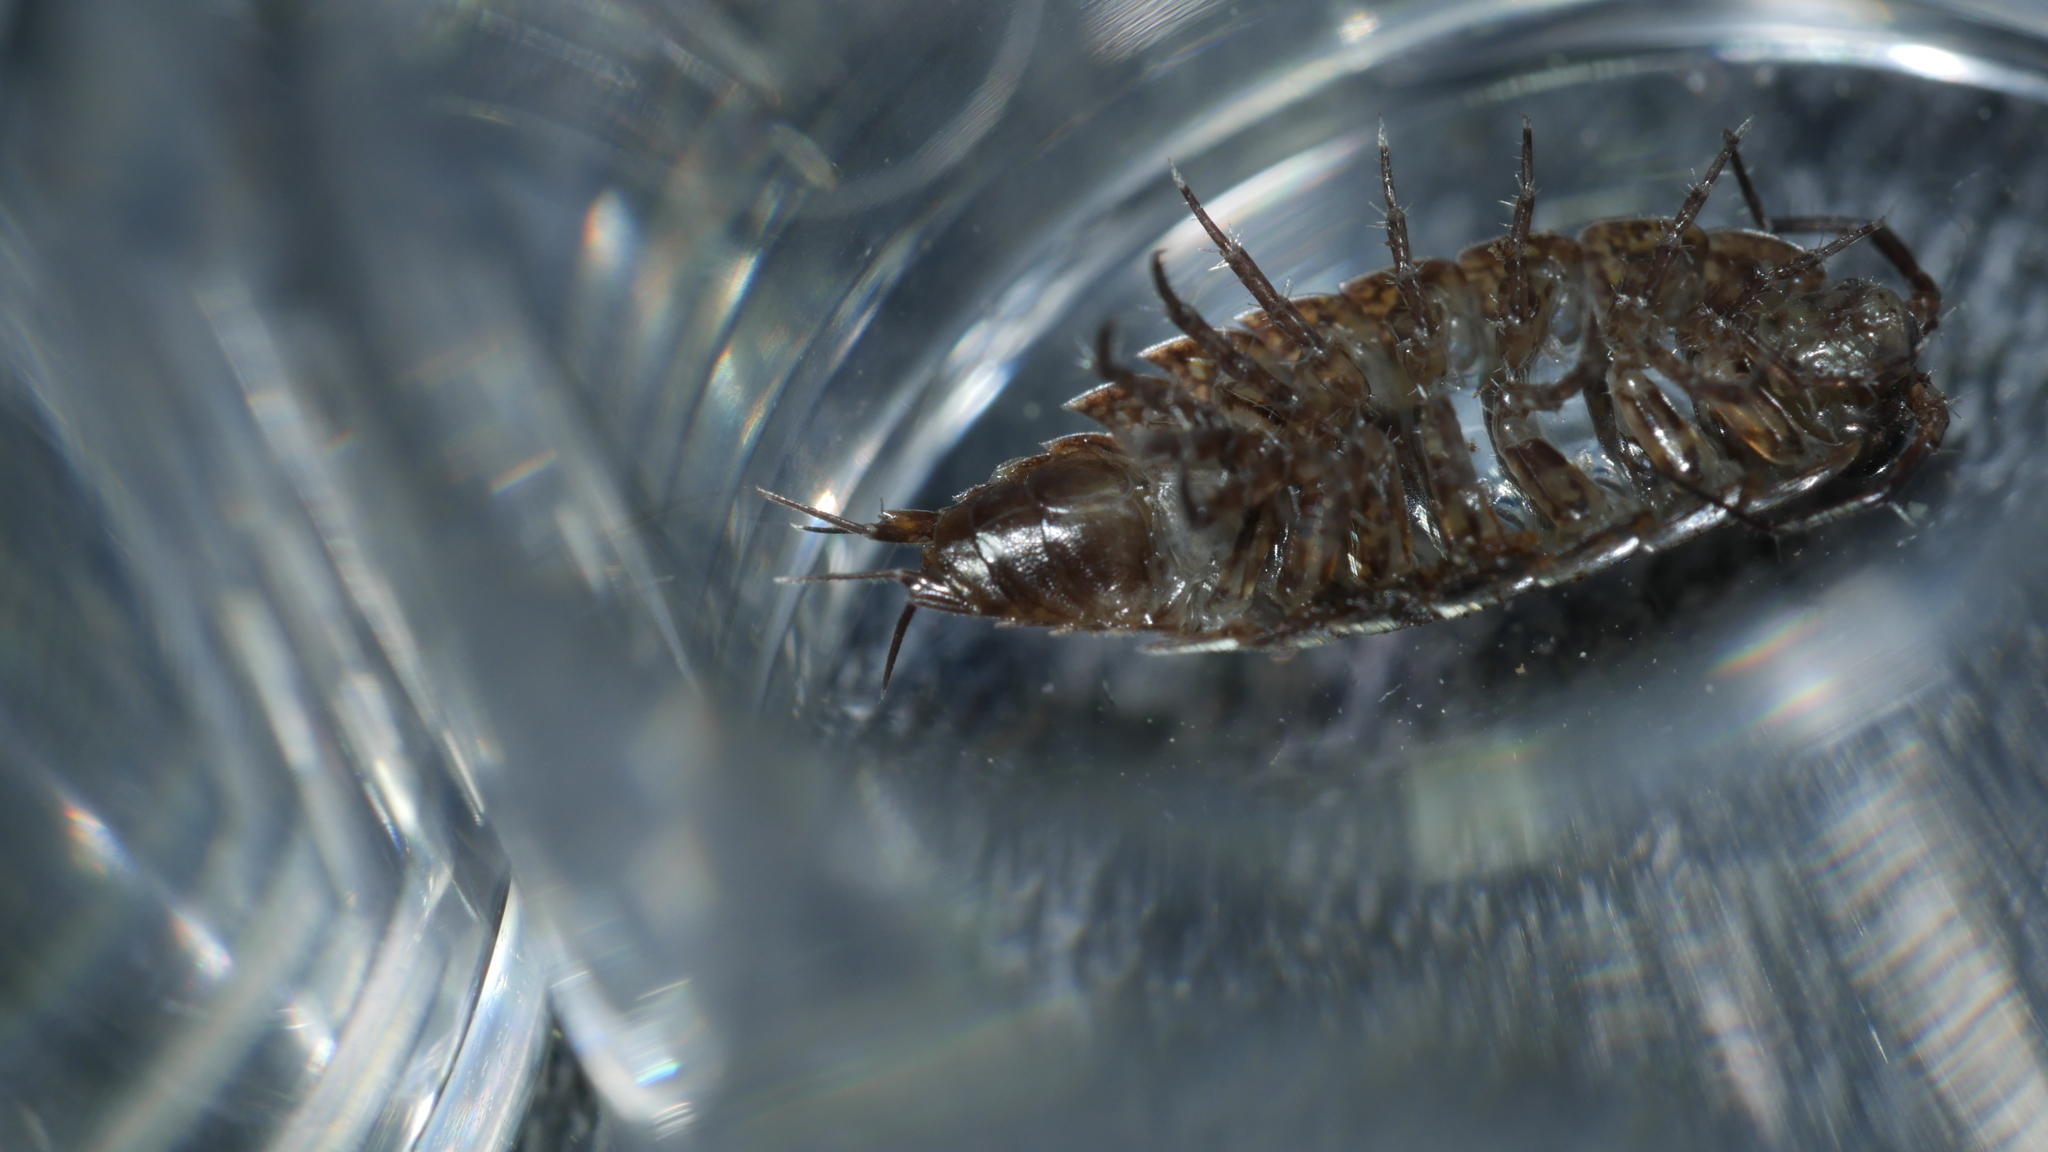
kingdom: Animalia
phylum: Arthropoda
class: Malacostraca
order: Isopoda
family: Ligiidae
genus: Ligidium
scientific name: Ligidium elrodii
